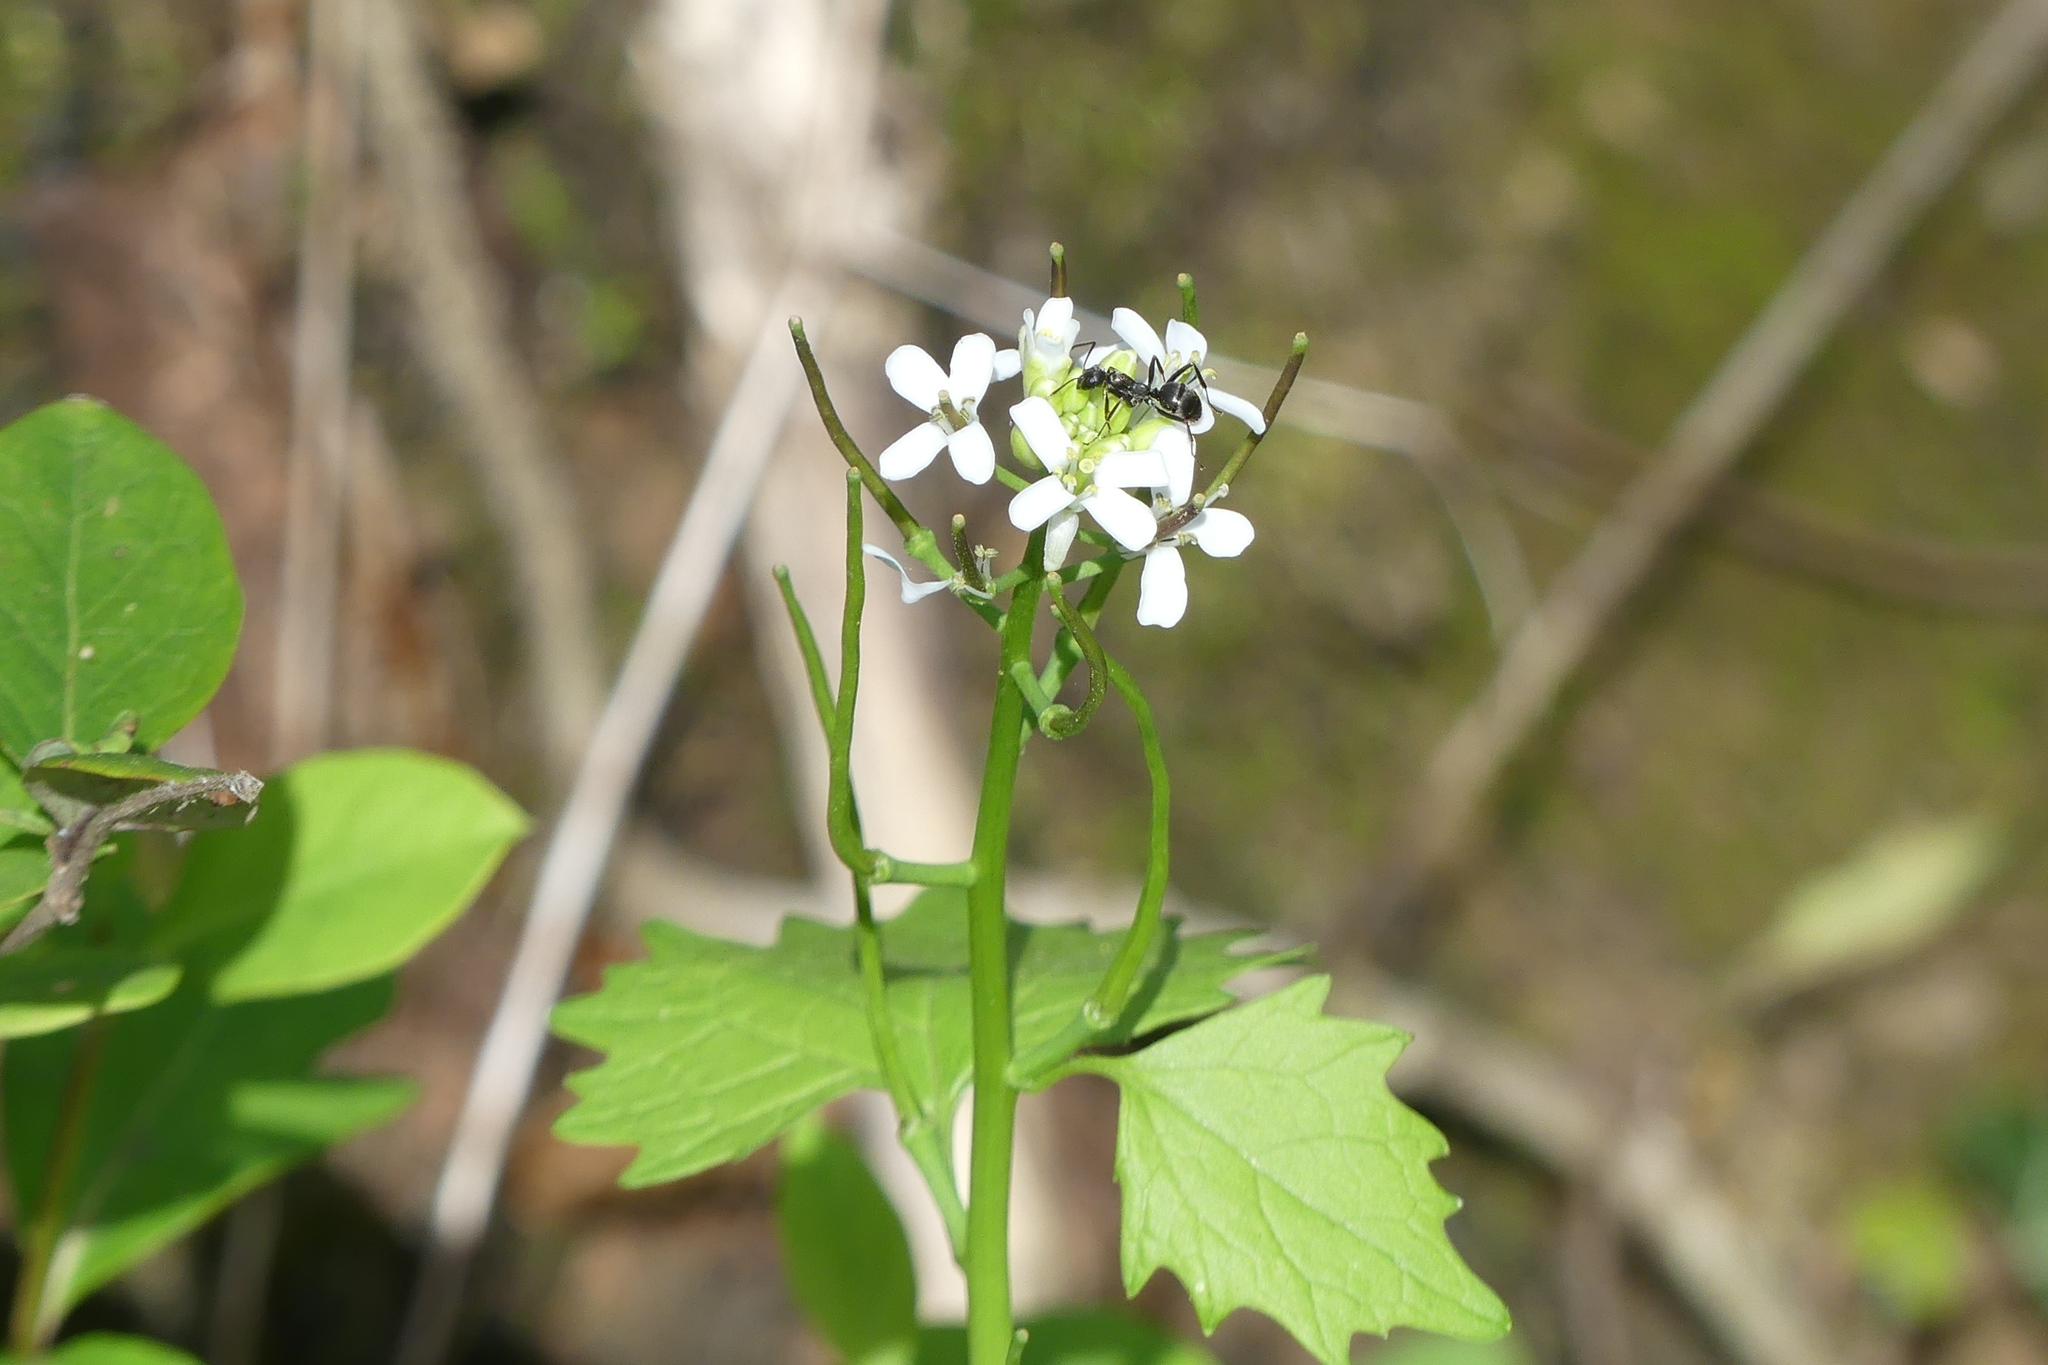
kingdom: Plantae
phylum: Tracheophyta
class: Magnoliopsida
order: Brassicales
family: Brassicaceae
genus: Alliaria
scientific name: Alliaria petiolata
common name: Garlic mustard
